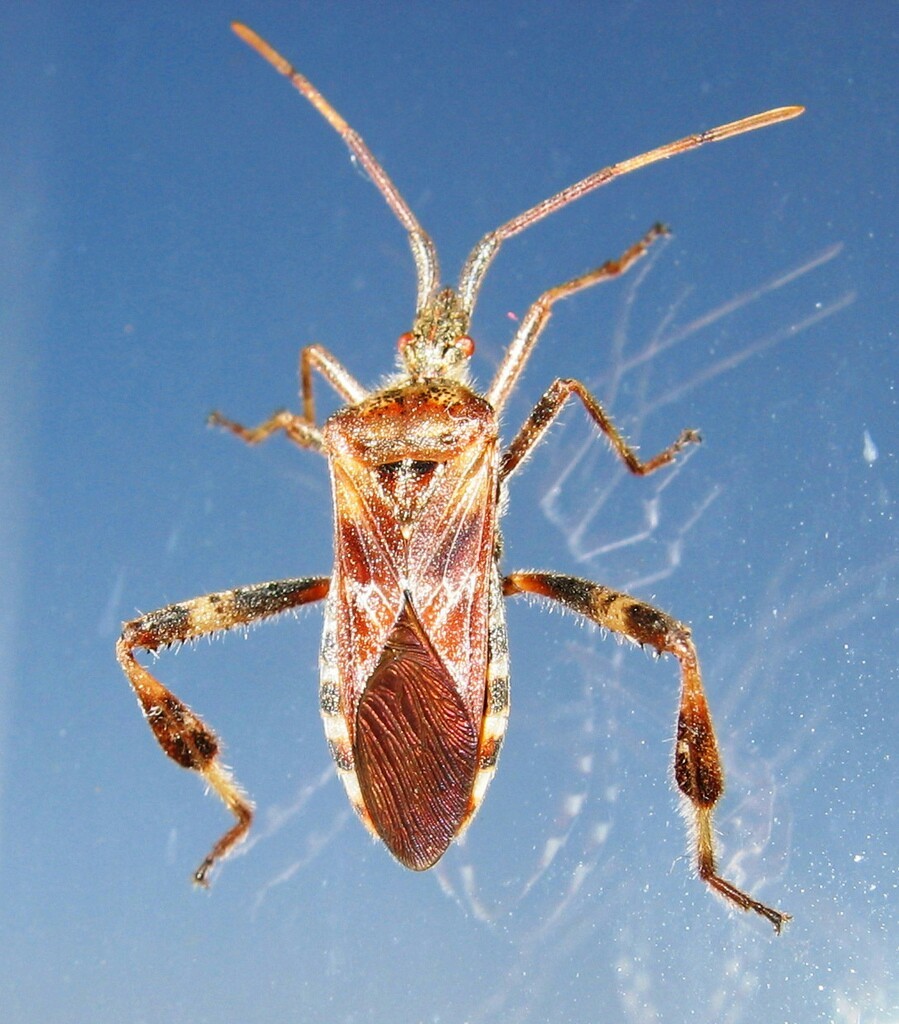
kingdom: Animalia
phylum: Arthropoda
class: Insecta
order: Hemiptera
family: Coreidae
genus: Leptoglossus
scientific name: Leptoglossus occidentalis
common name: Western conifer-seed bug
